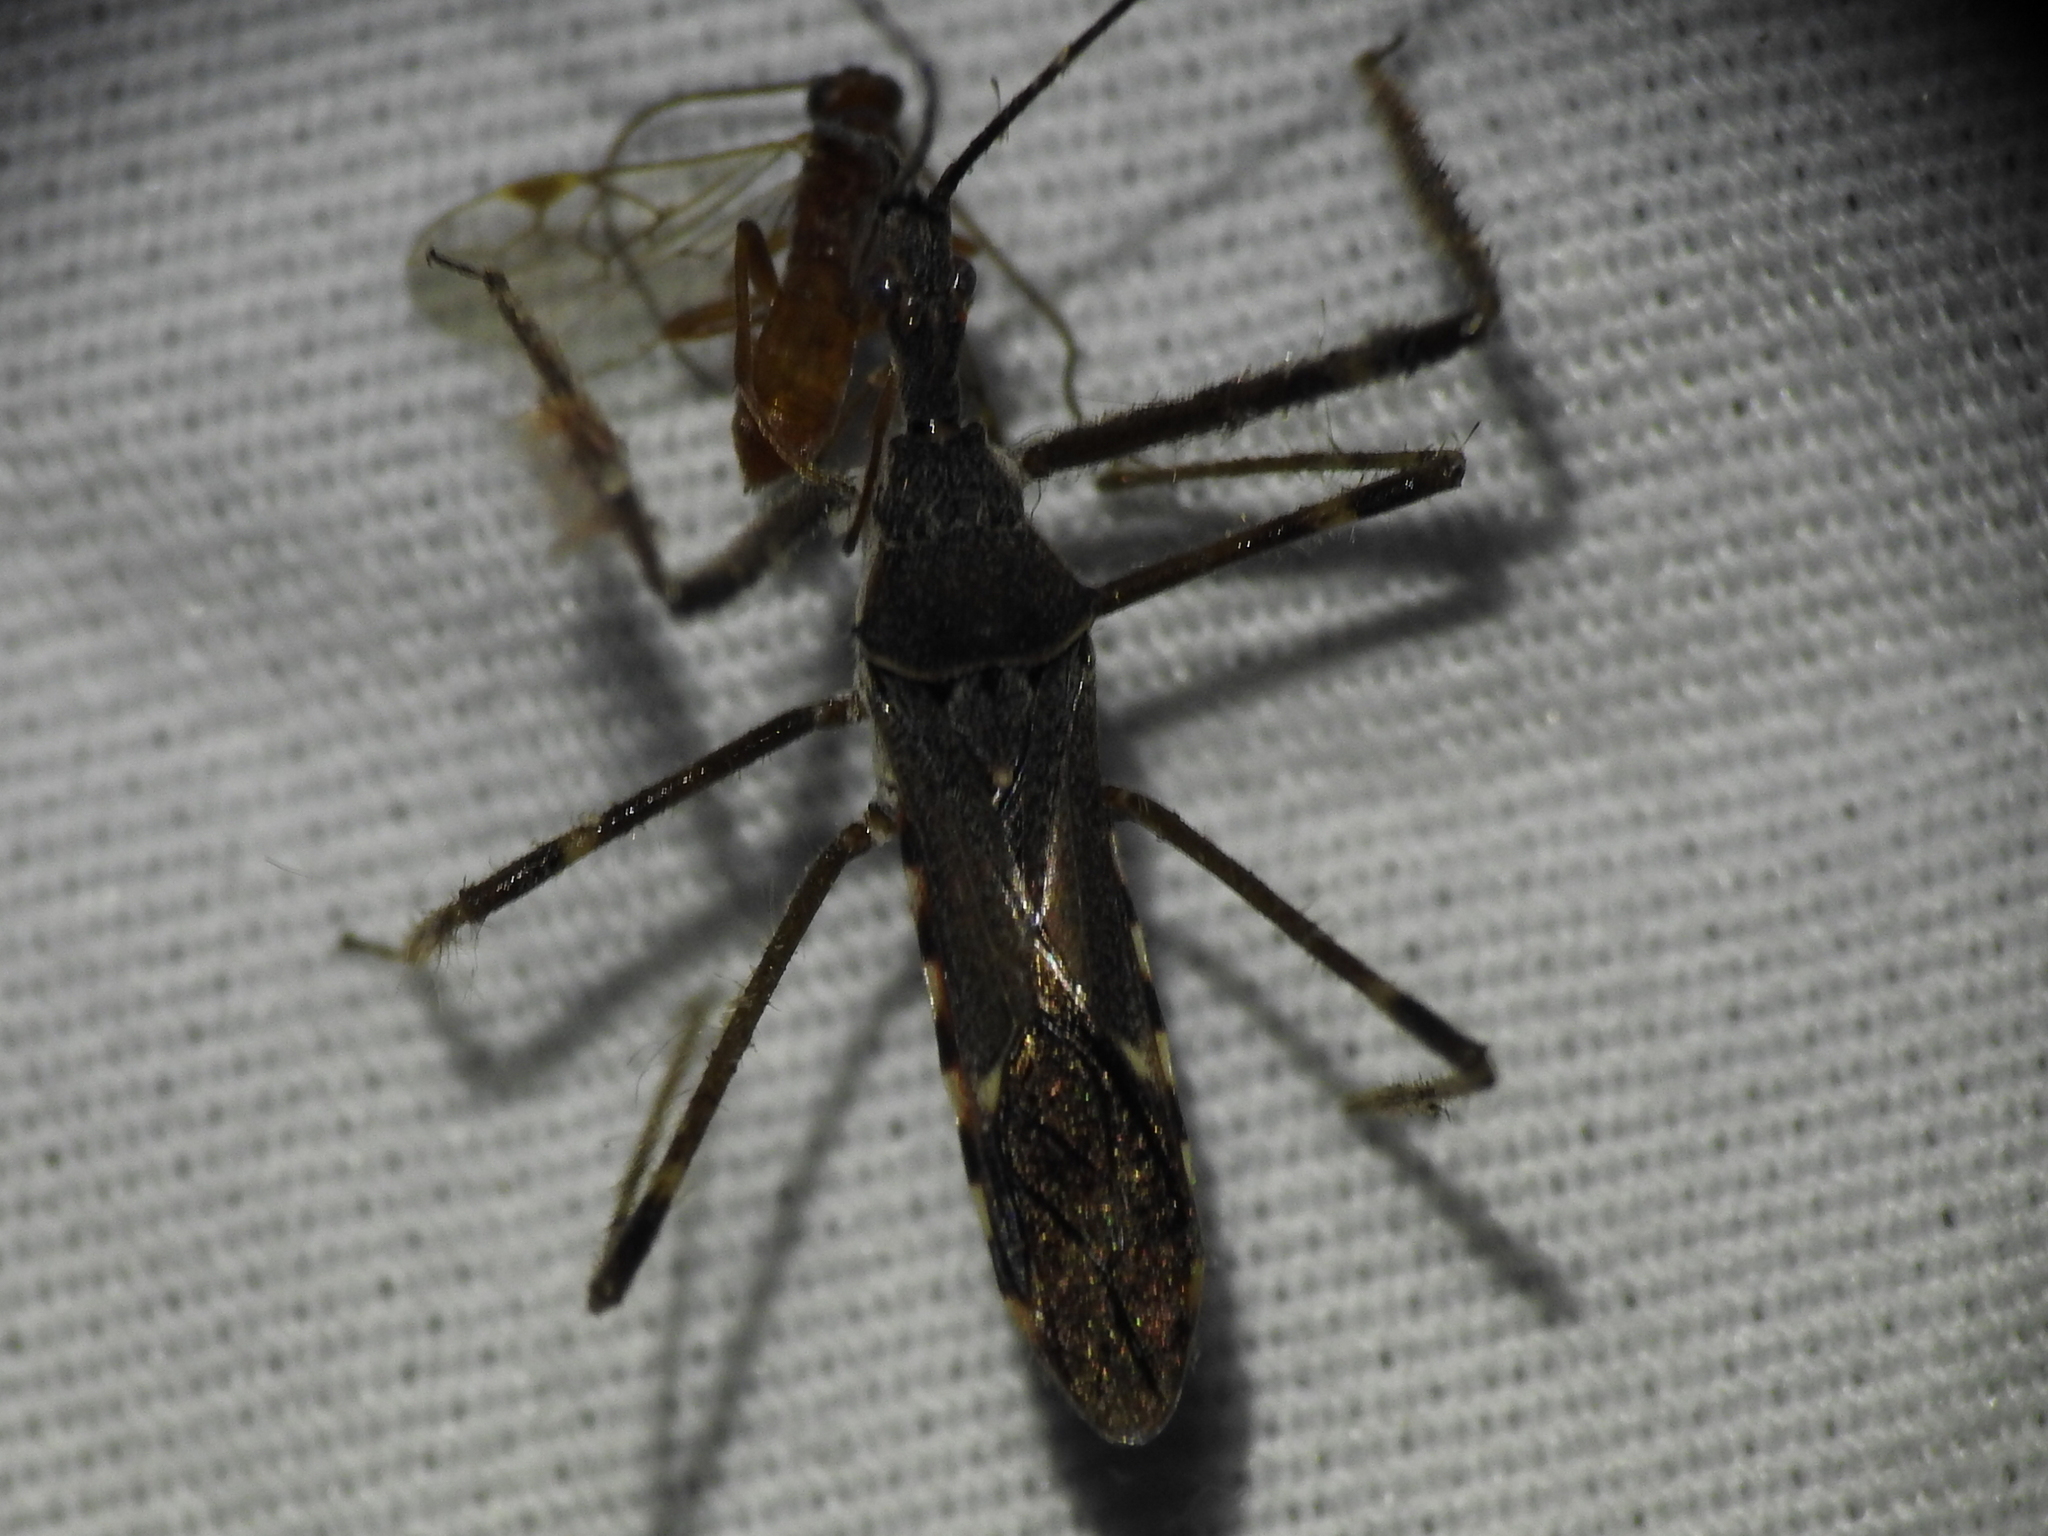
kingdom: Animalia
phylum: Arthropoda
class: Insecta
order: Hemiptera
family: Reduviidae
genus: Zelus
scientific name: Zelus tetracanthus
